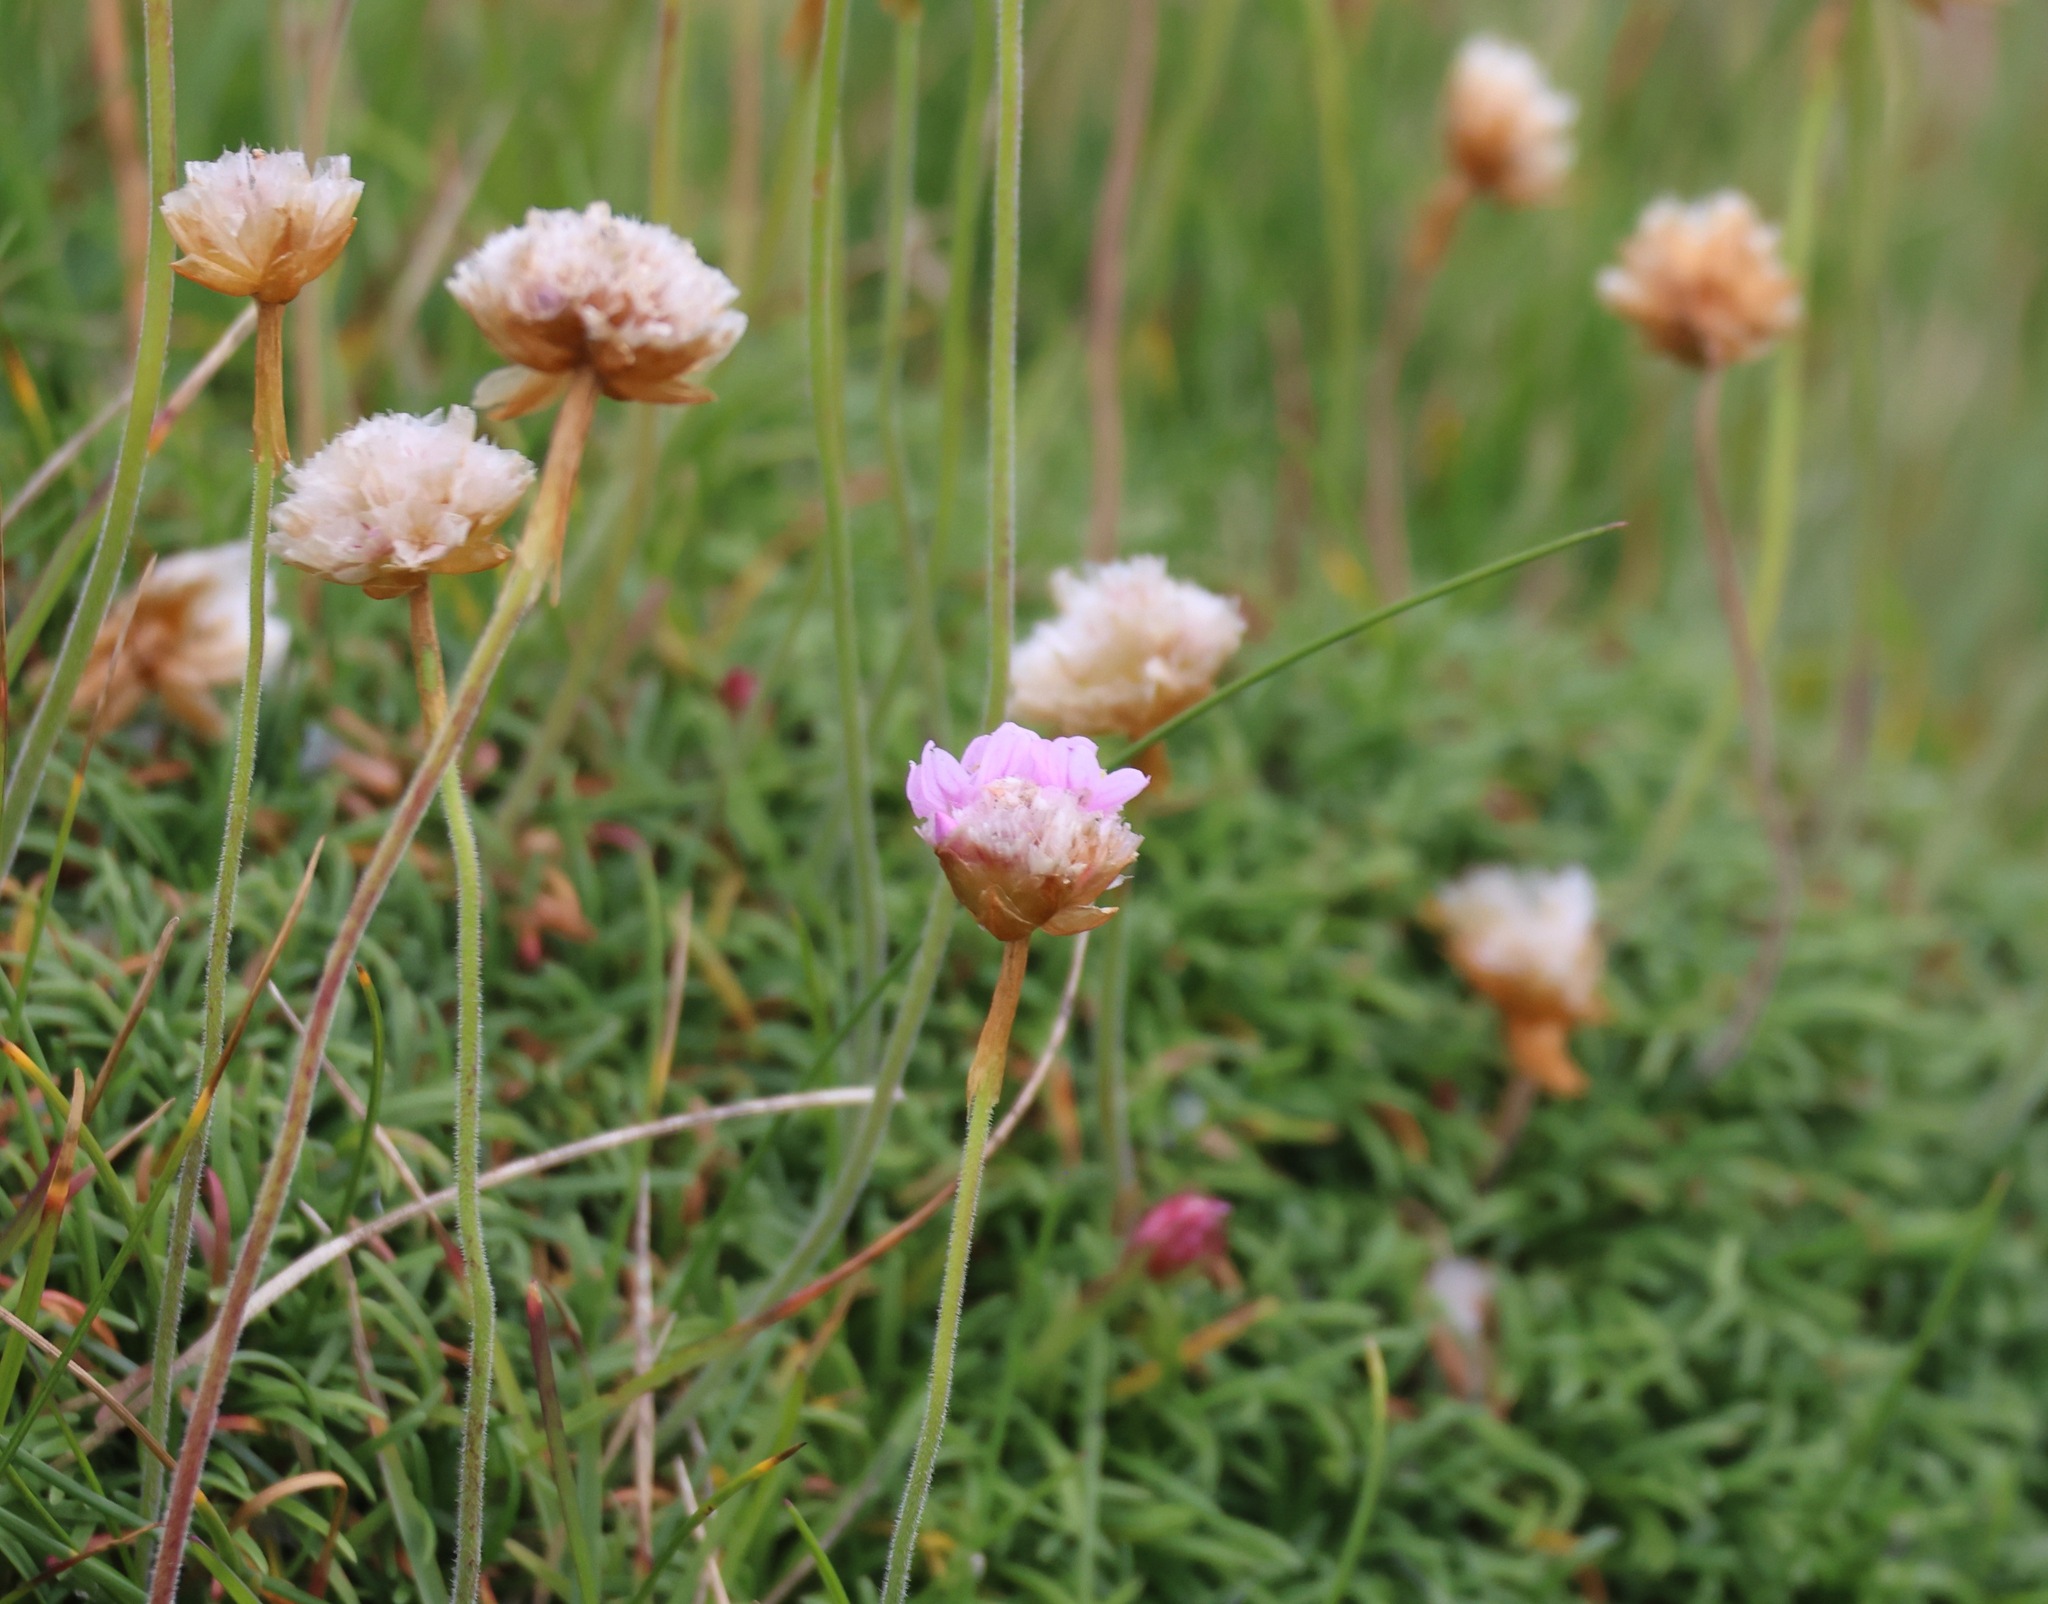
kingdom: Plantae
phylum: Tracheophyta
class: Magnoliopsida
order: Caryophyllales
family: Plumbaginaceae
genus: Armeria
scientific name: Armeria maritima
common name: Thrift
